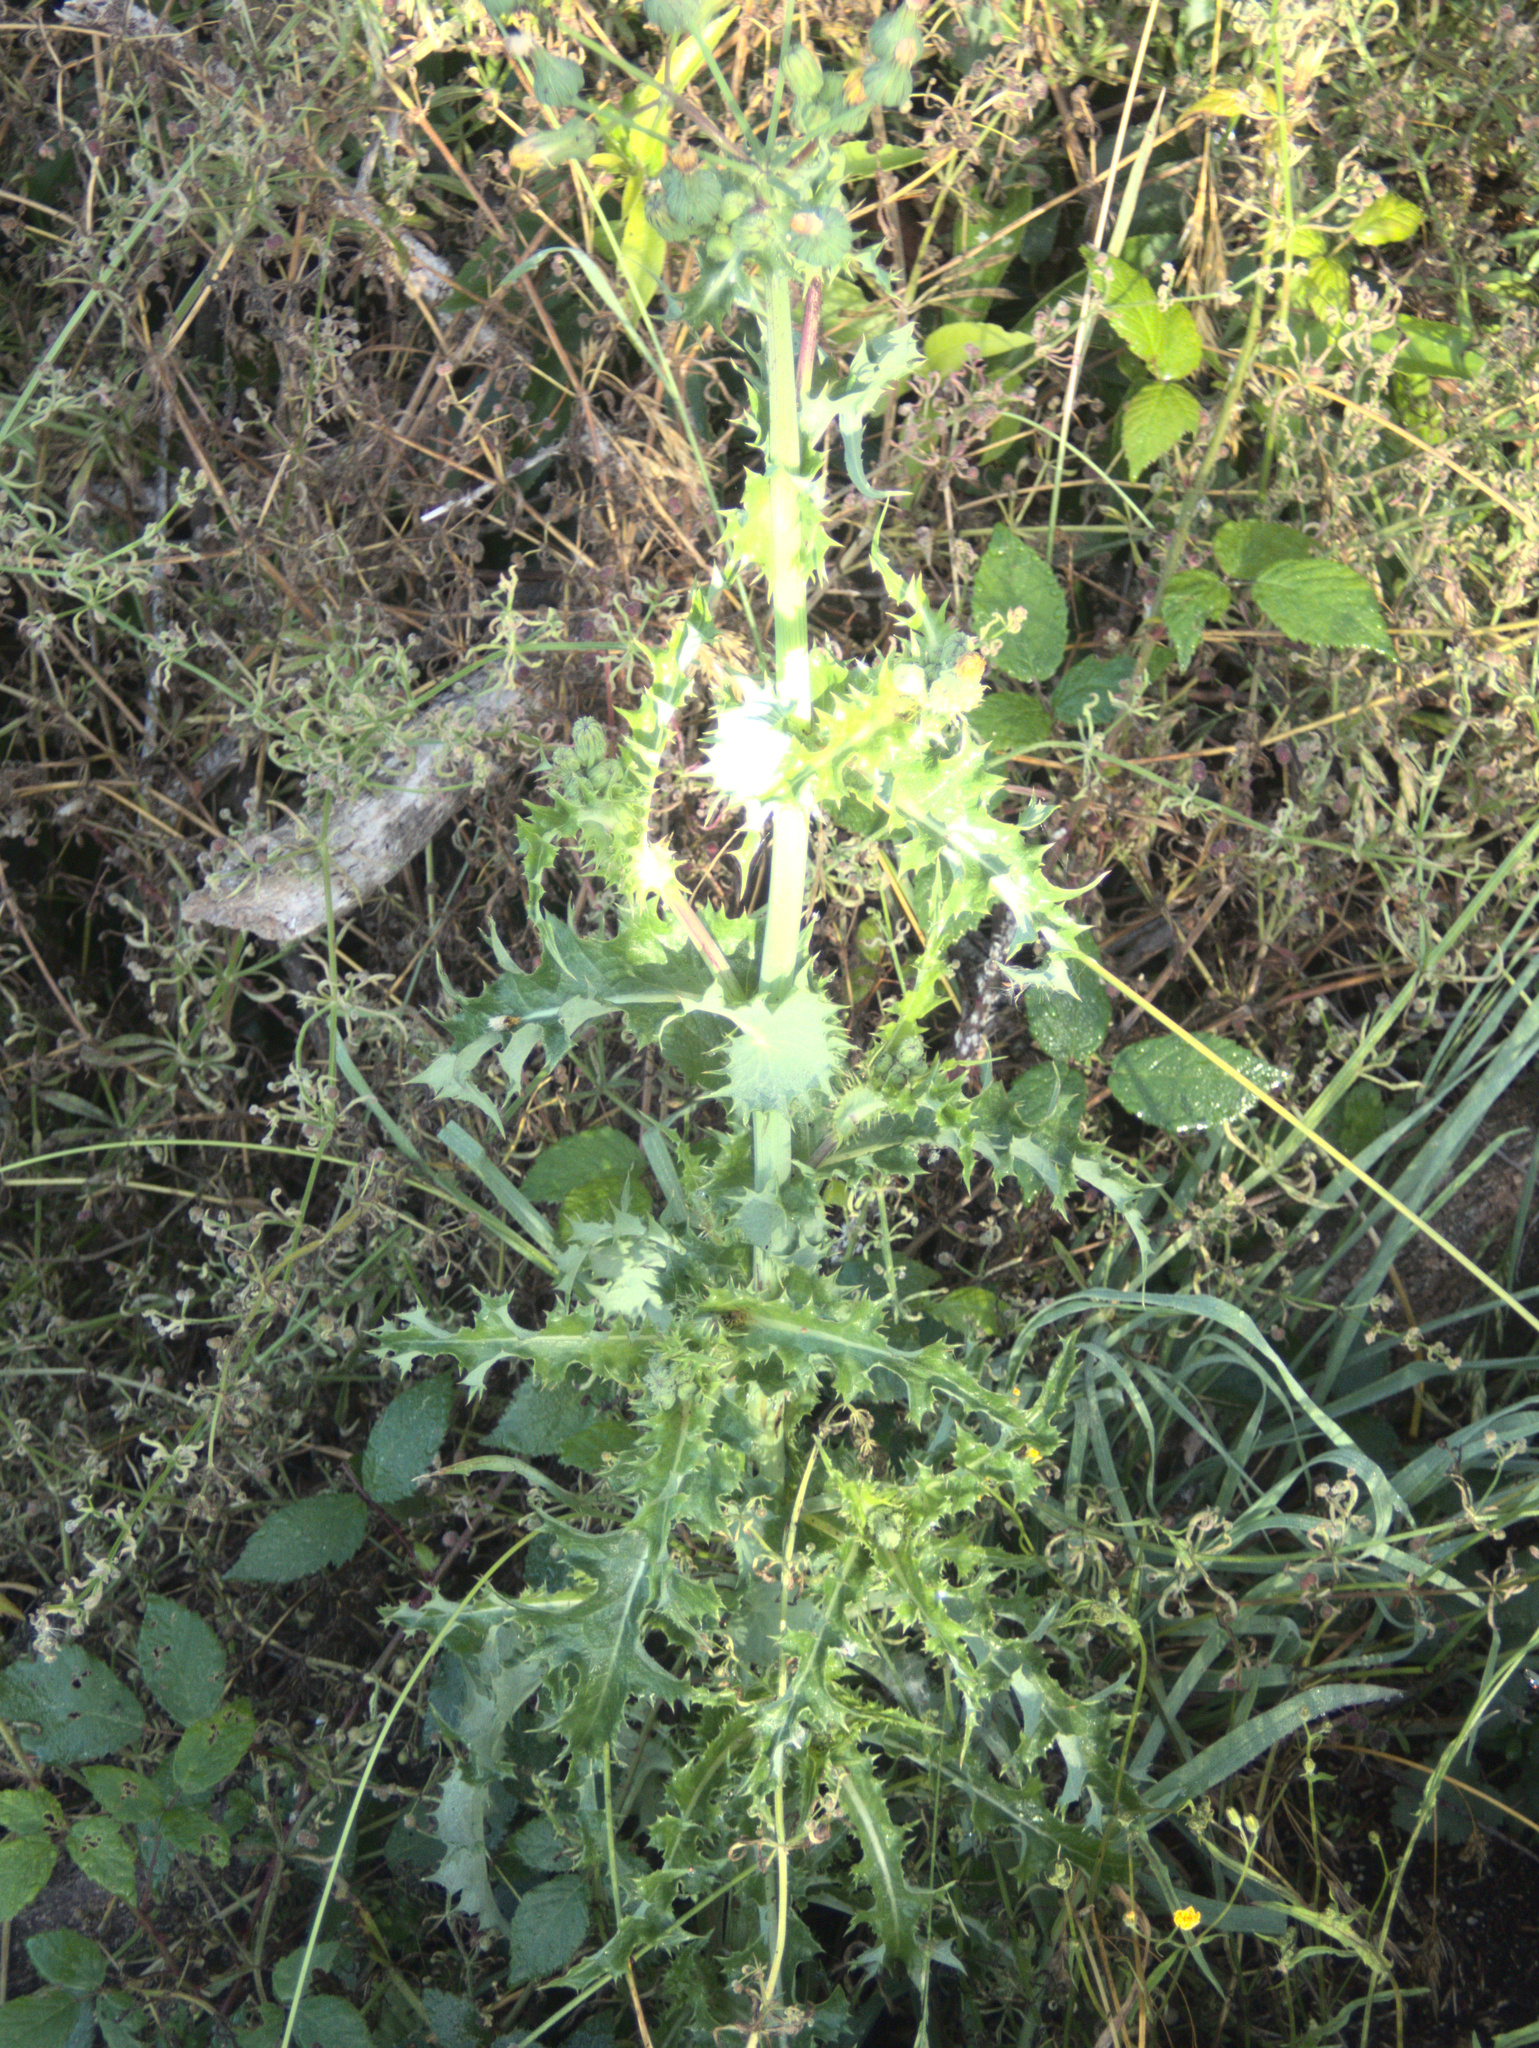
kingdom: Plantae
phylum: Tracheophyta
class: Magnoliopsida
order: Asterales
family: Asteraceae
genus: Sonchus
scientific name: Sonchus asper
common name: Prickly sow-thistle
